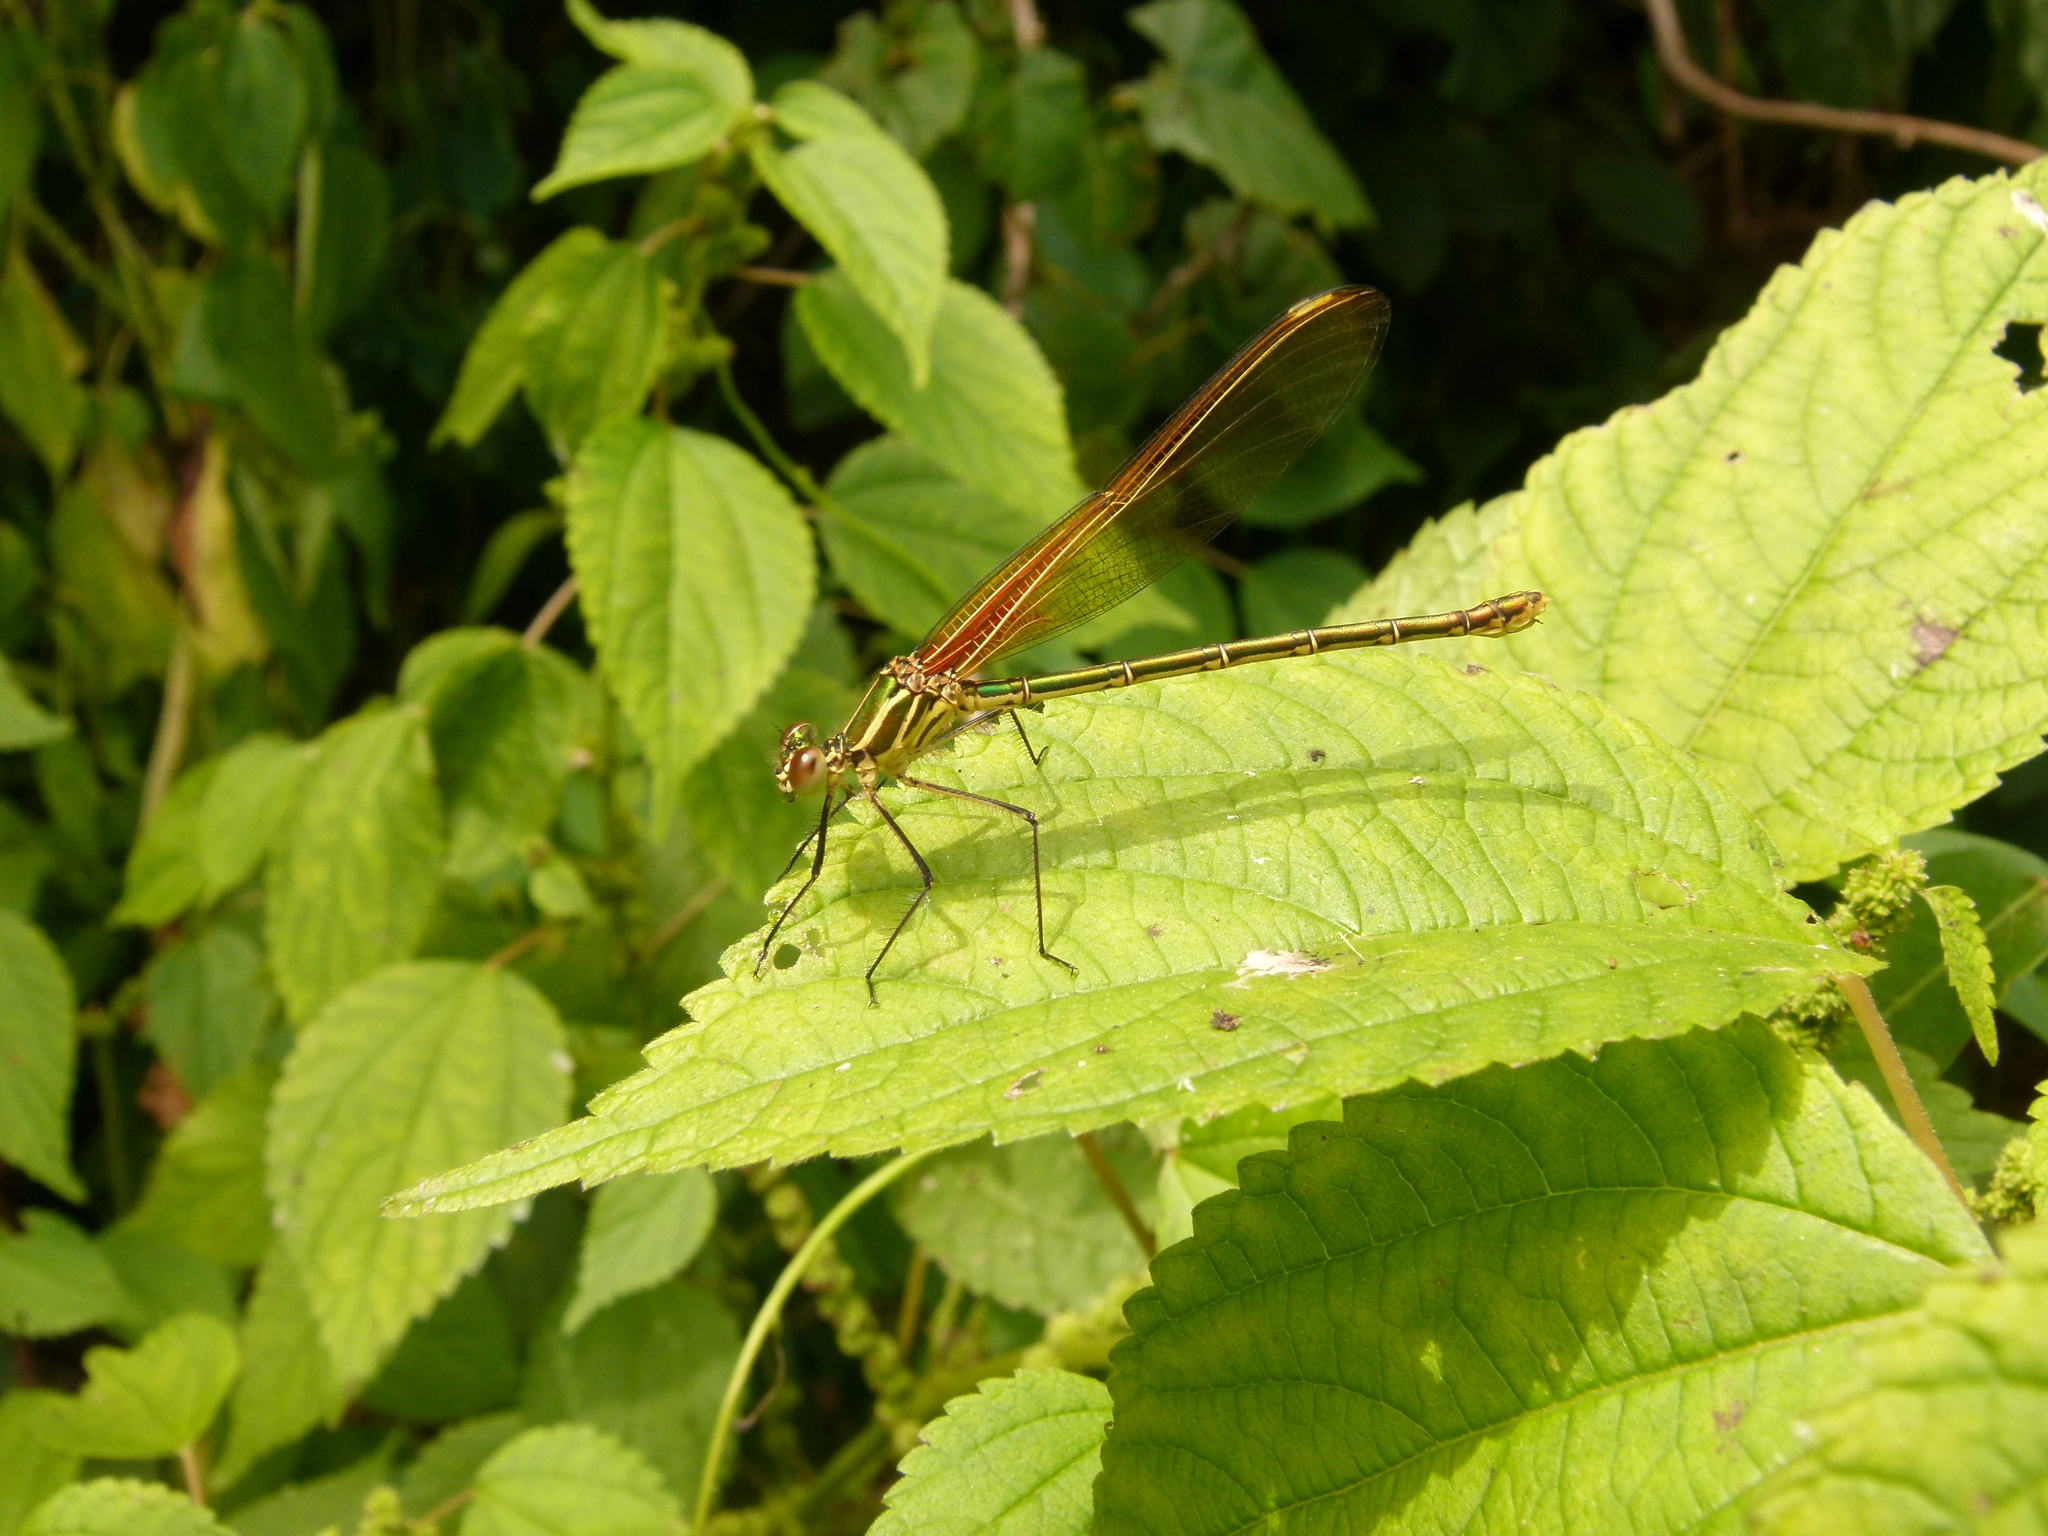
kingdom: Animalia
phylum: Arthropoda
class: Insecta
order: Odonata
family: Calopterygidae
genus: Hetaerina
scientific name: Hetaerina americana
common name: American rubyspot
